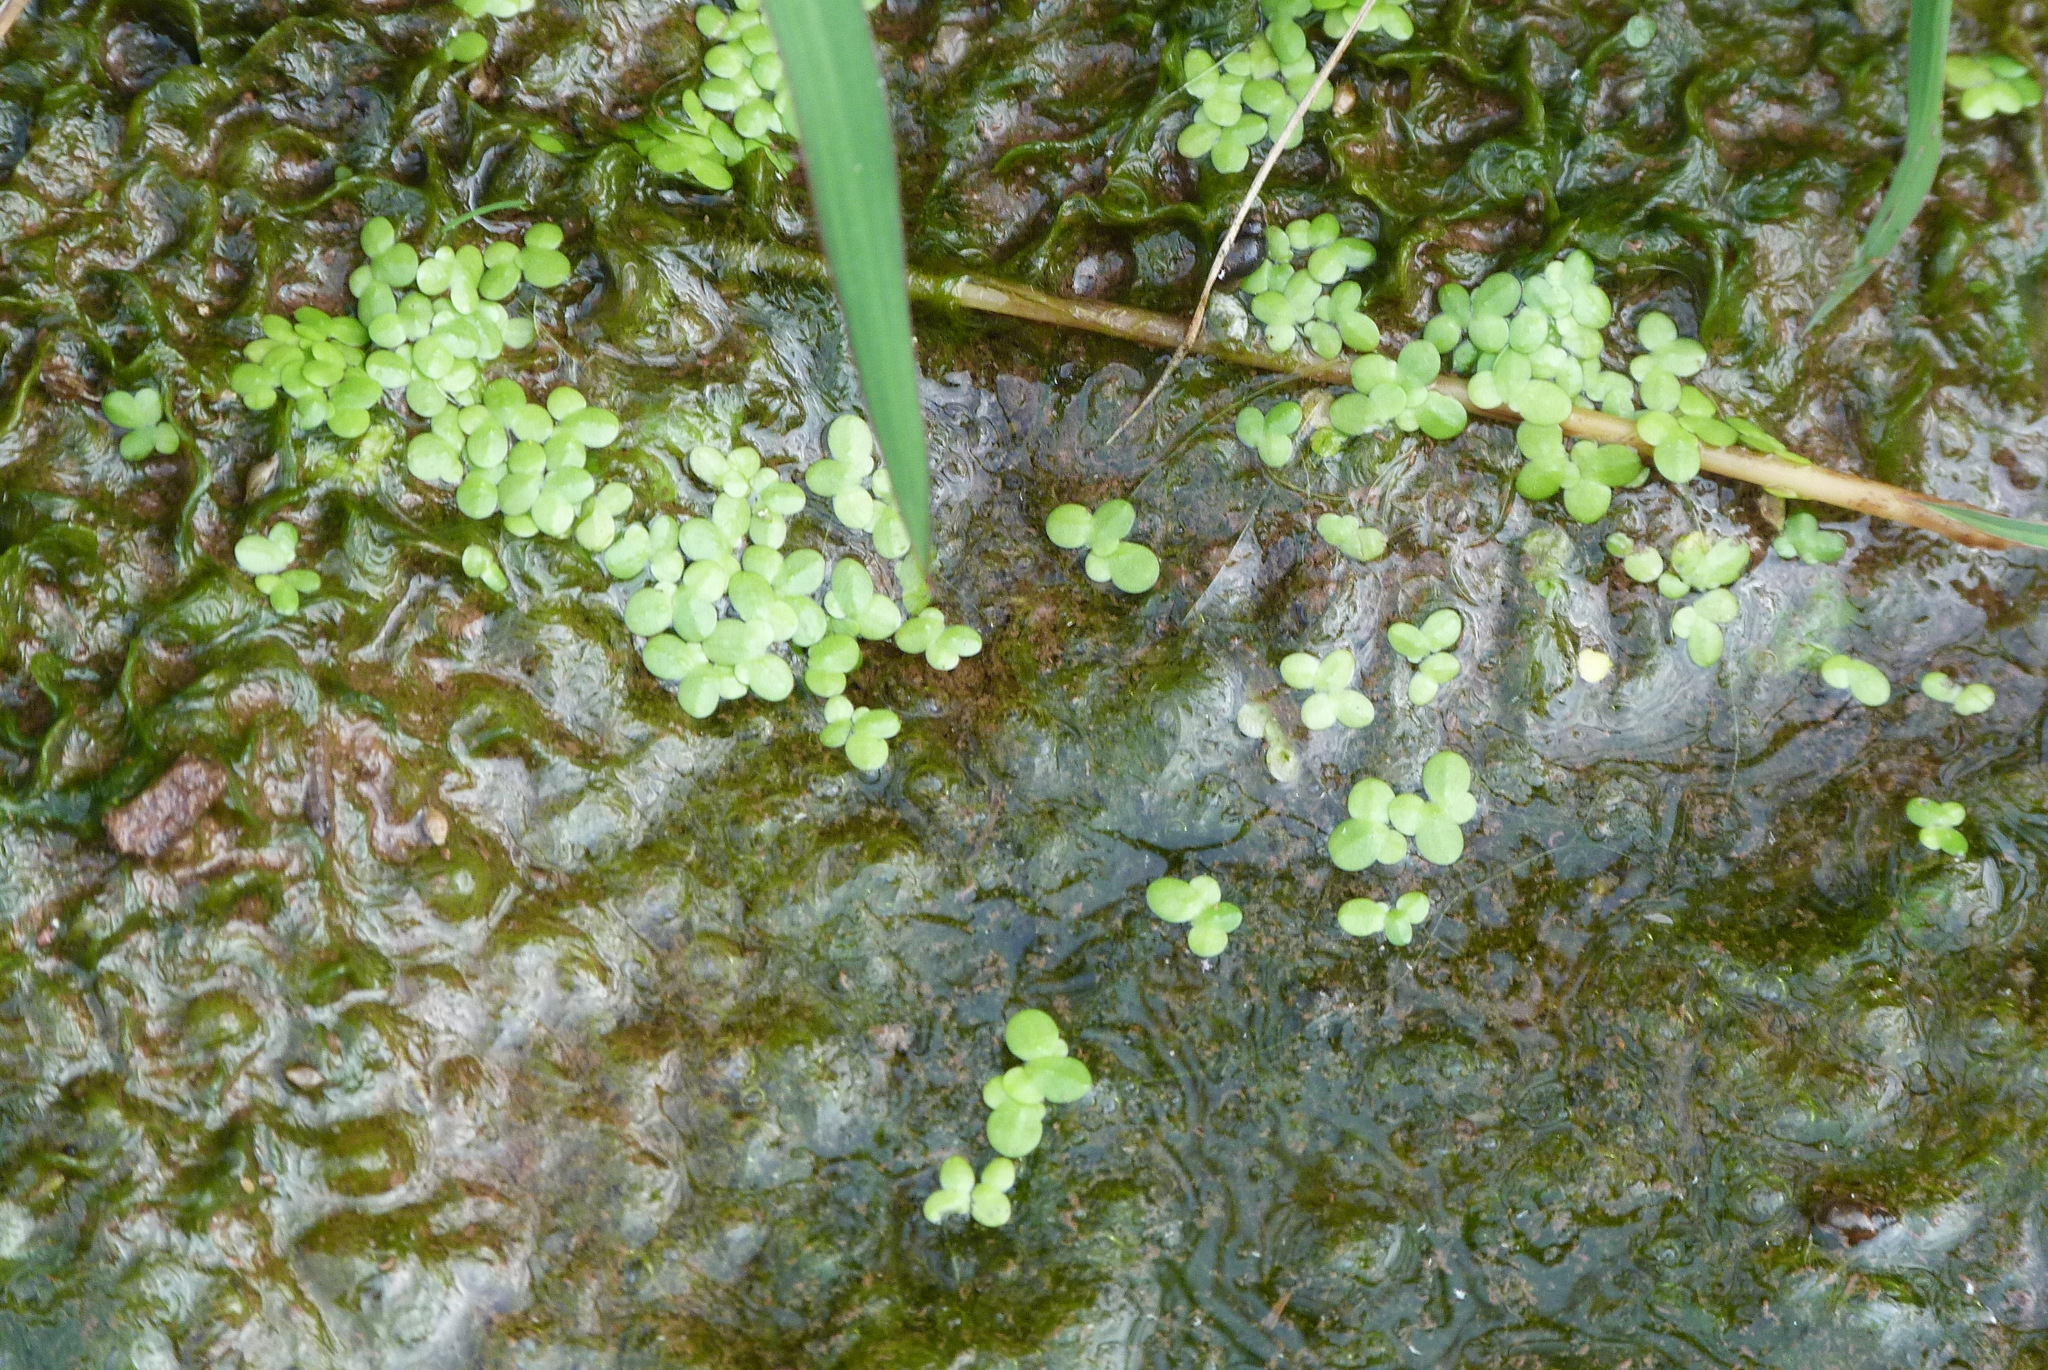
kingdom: Plantae
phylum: Tracheophyta
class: Liliopsida
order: Alismatales
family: Araceae
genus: Lemna
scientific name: Lemna minor
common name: Common duckweed
